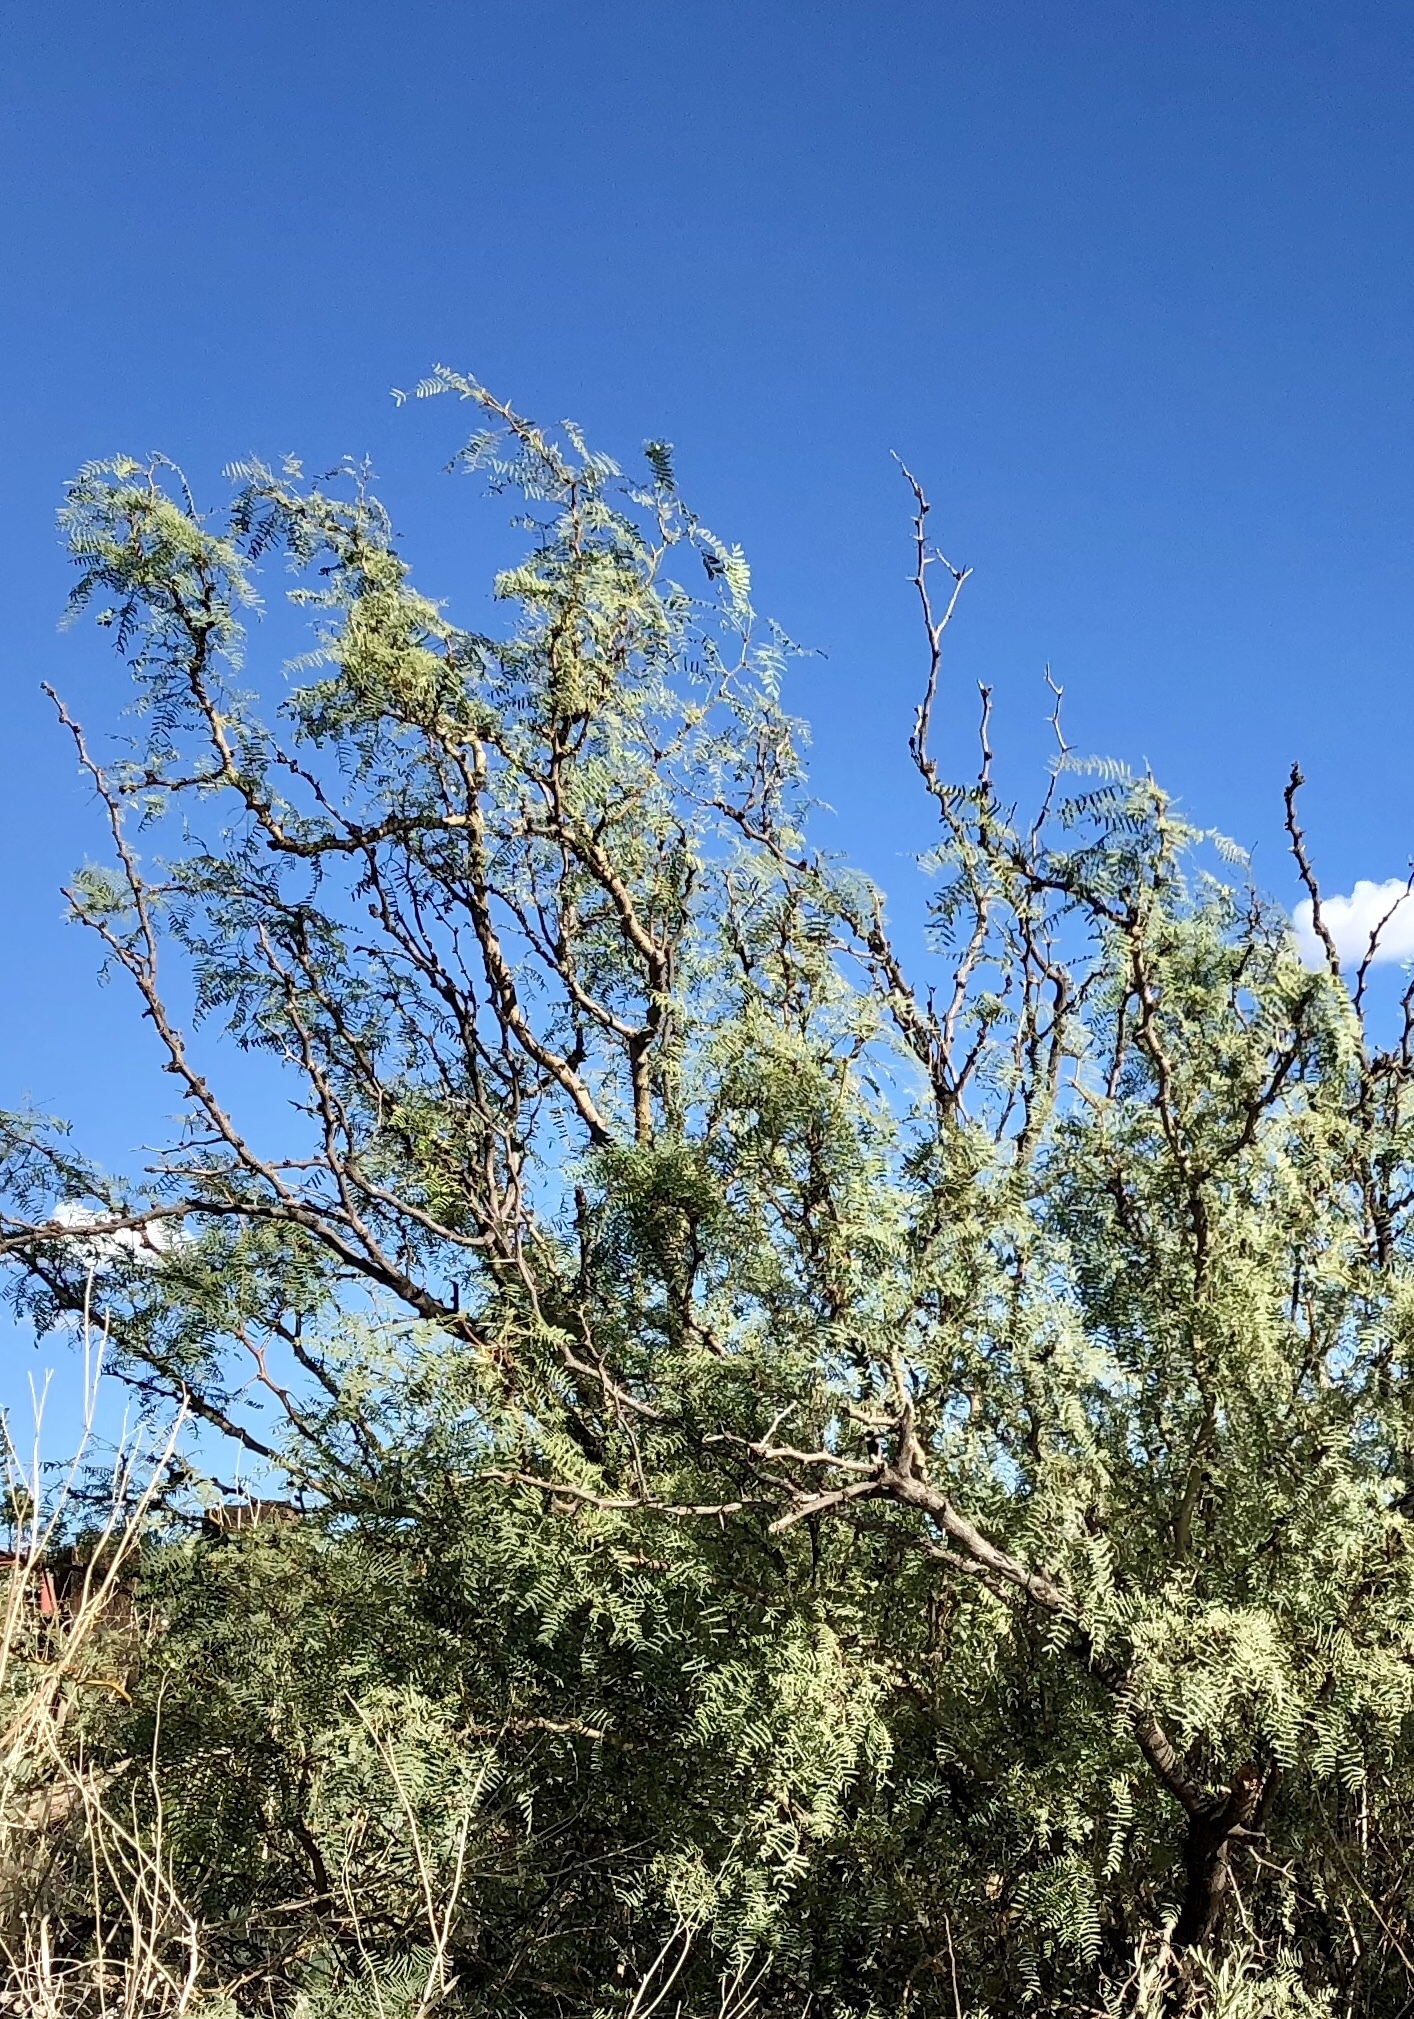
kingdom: Plantae
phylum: Tracheophyta
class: Magnoliopsida
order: Fabales
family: Fabaceae
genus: Prosopis
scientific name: Prosopis glandulosa
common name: Honey mesquite
